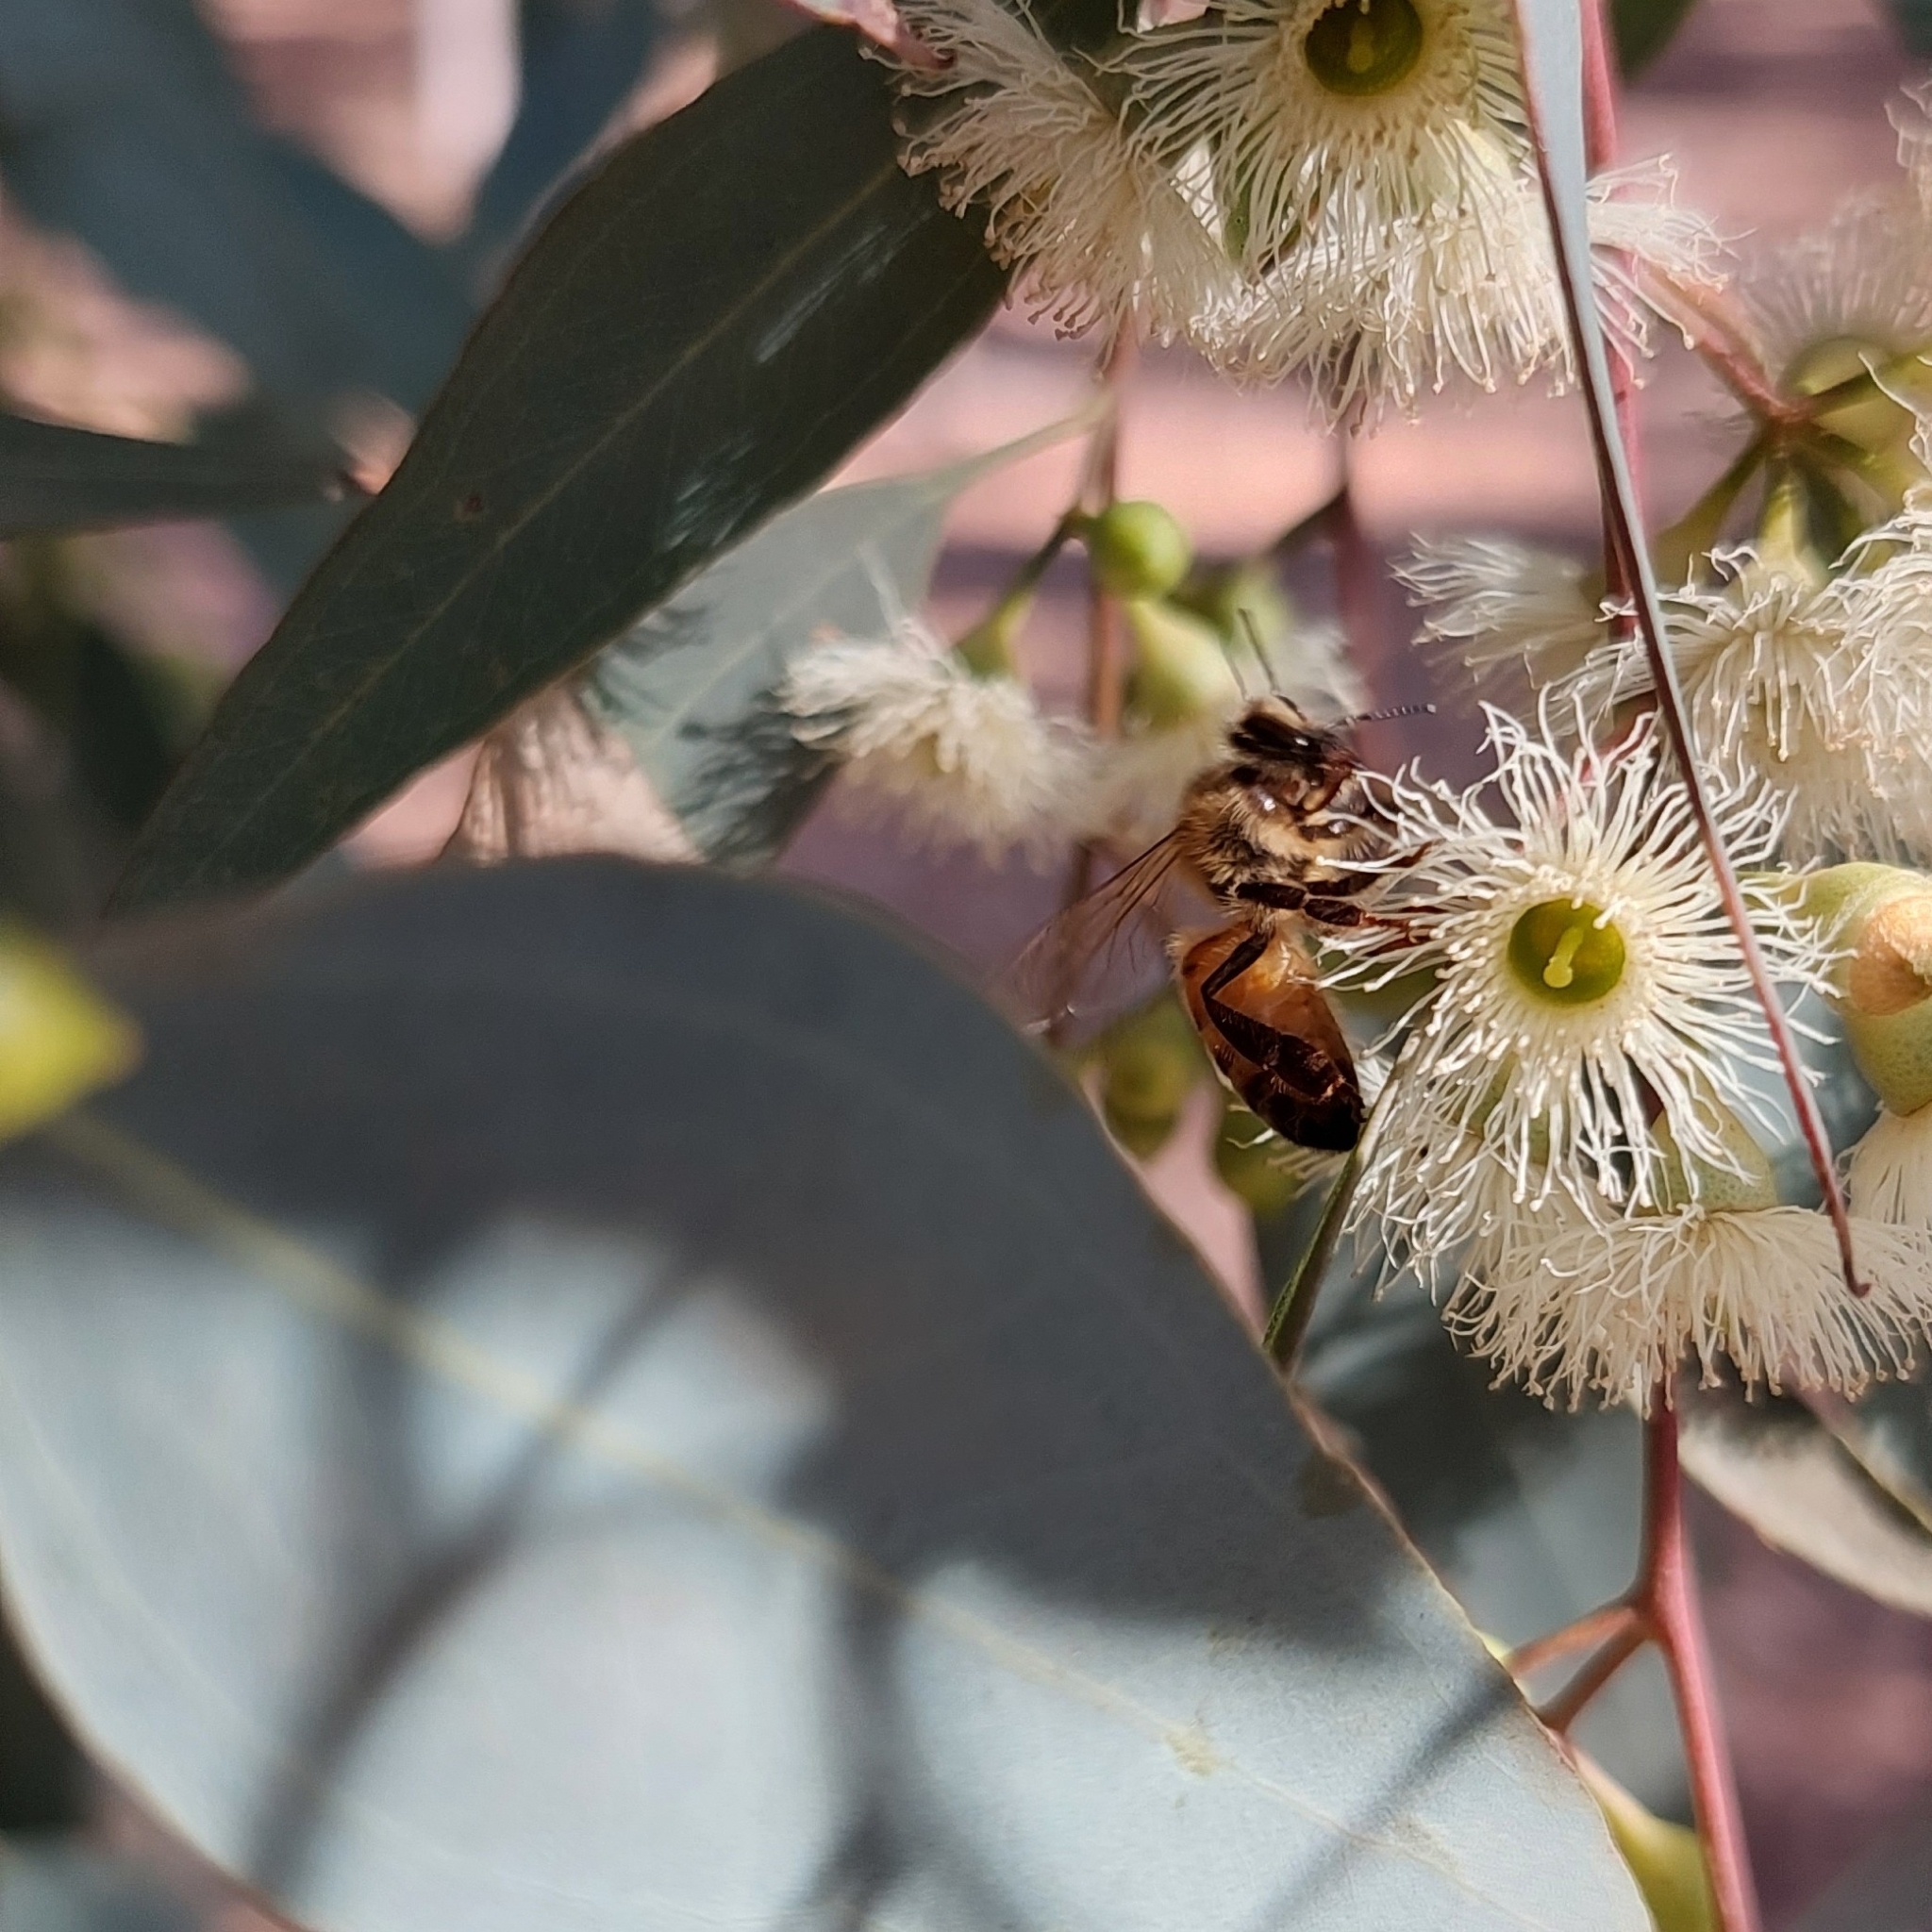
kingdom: Animalia
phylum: Arthropoda
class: Insecta
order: Hymenoptera
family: Apidae
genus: Apis
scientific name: Apis mellifera
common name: Honey bee
